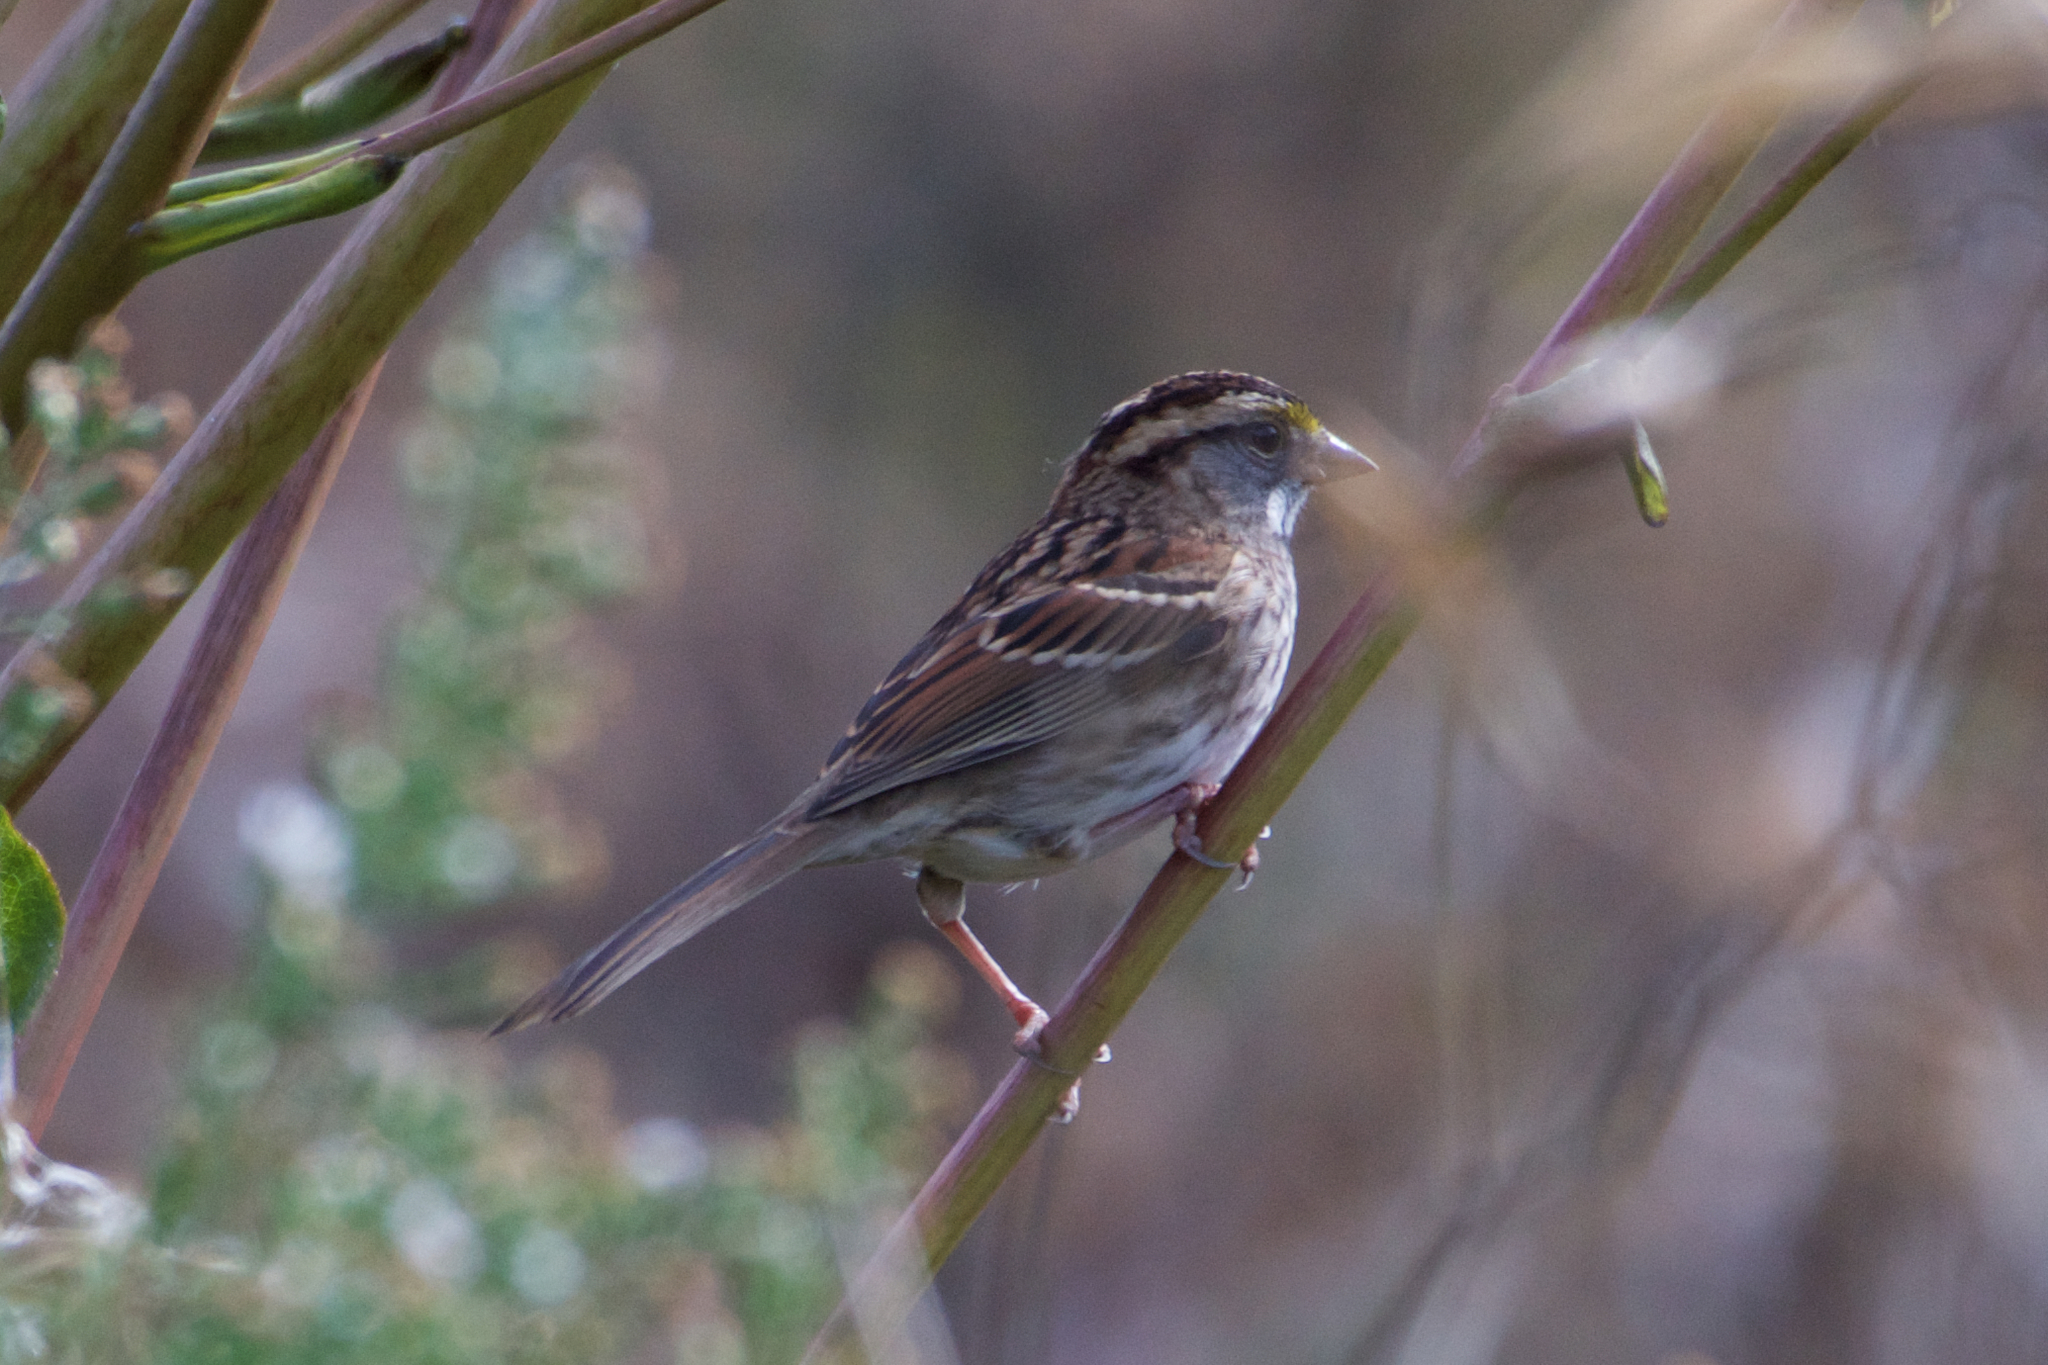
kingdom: Animalia
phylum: Chordata
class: Aves
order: Passeriformes
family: Passerellidae
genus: Zonotrichia
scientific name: Zonotrichia albicollis
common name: White-throated sparrow
